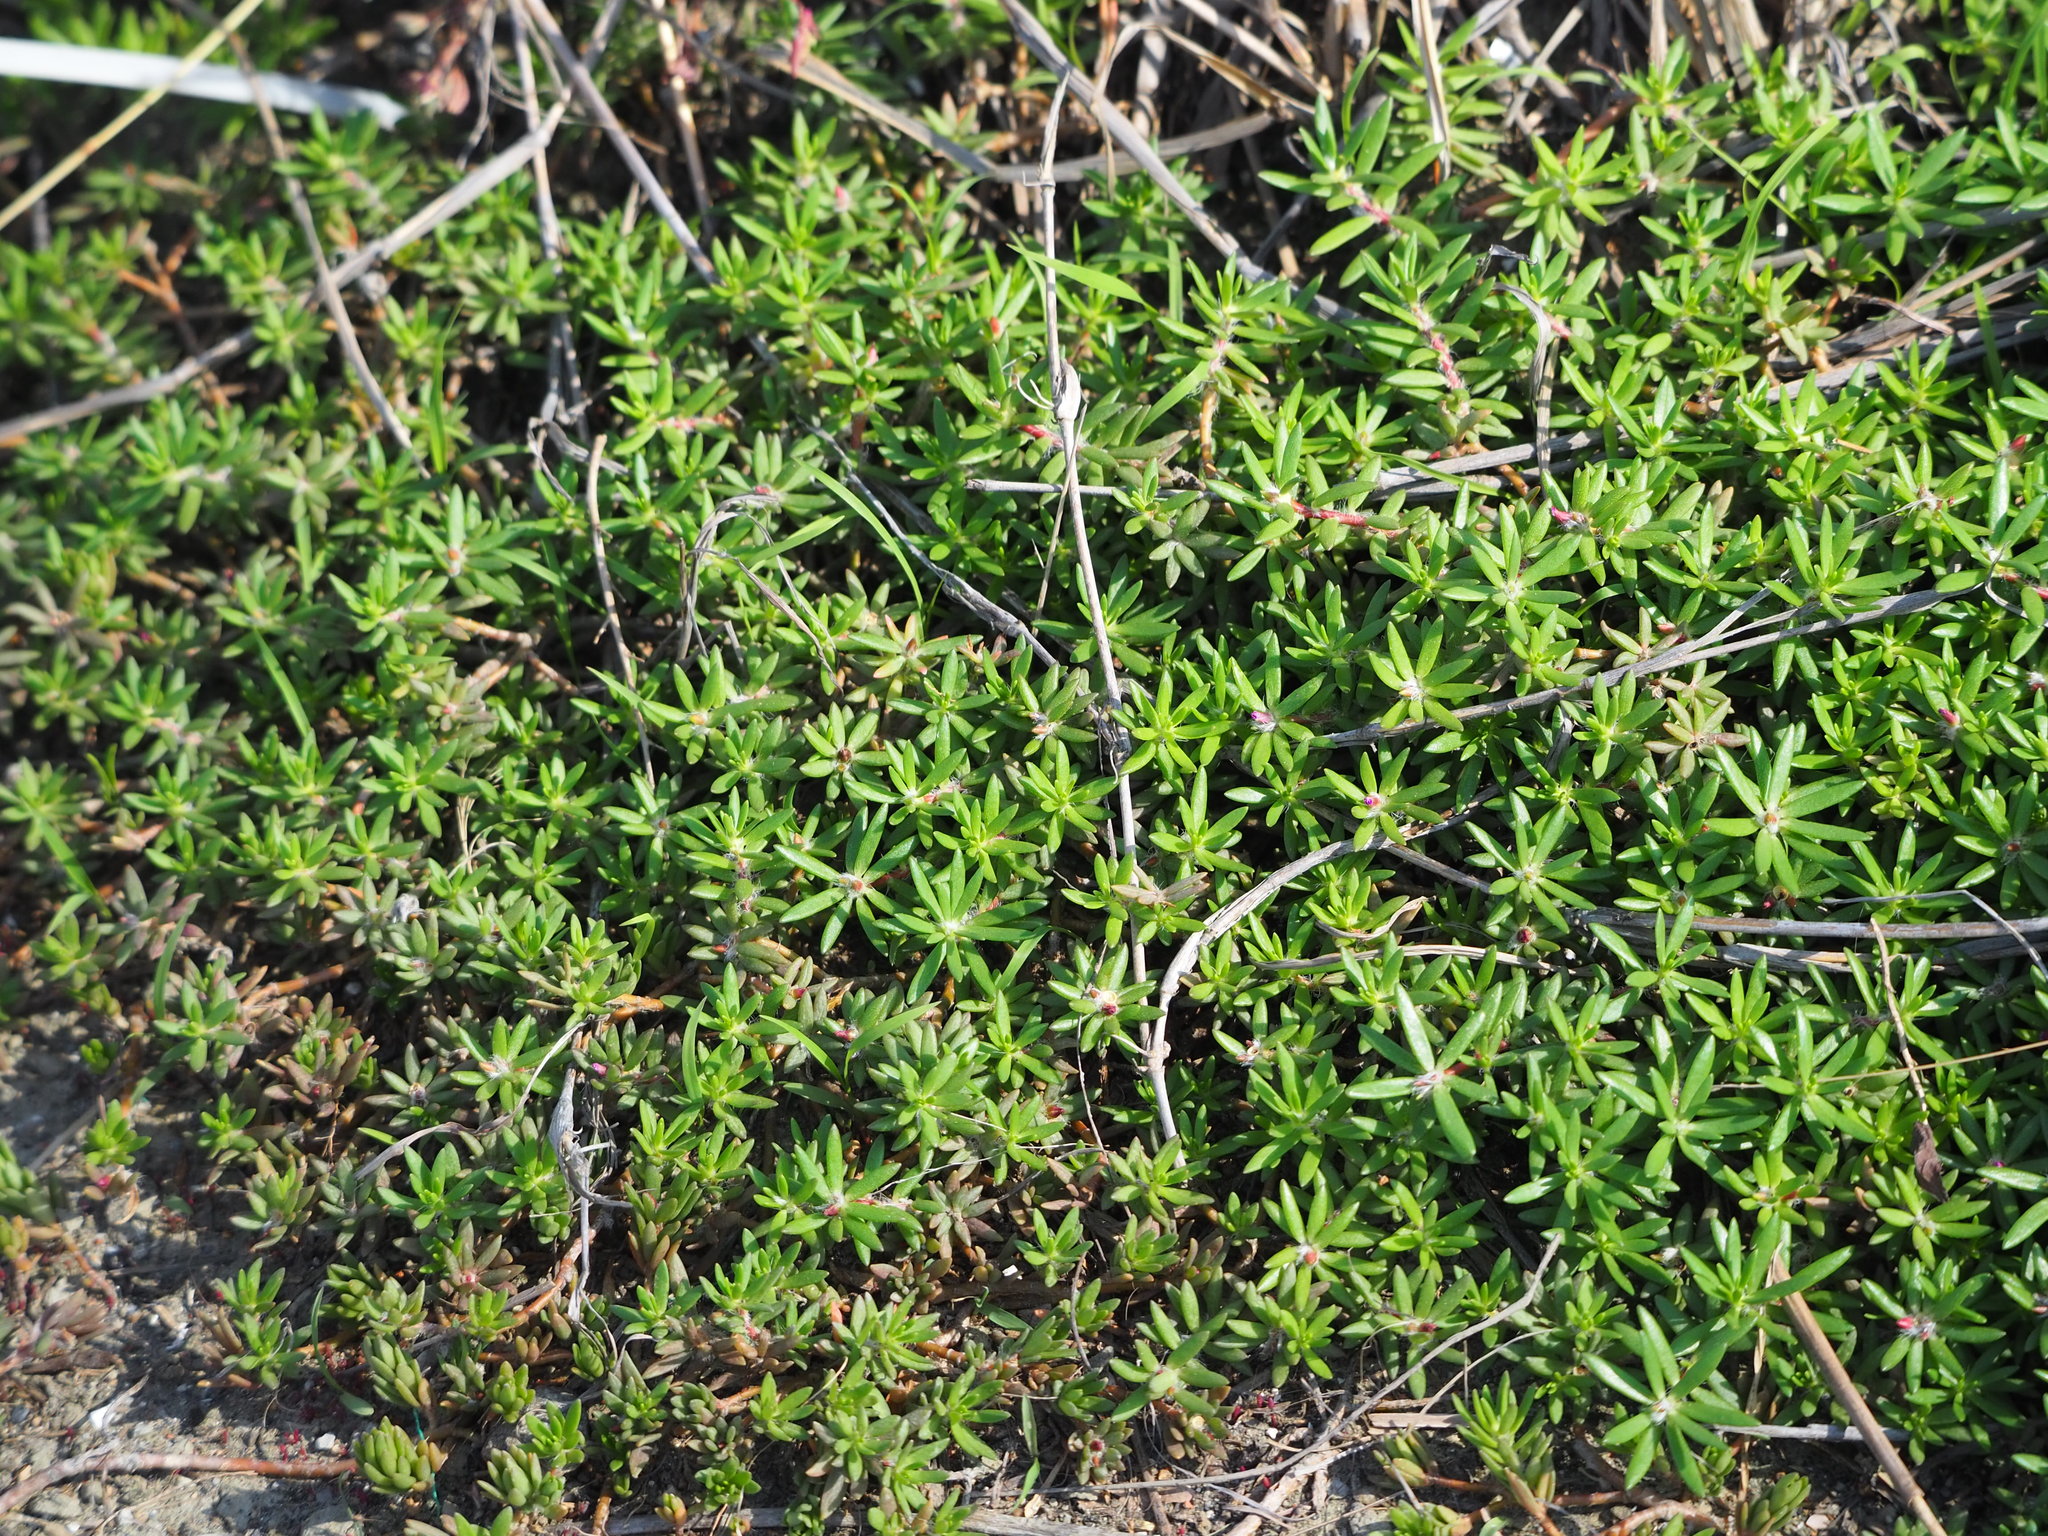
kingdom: Plantae
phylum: Tracheophyta
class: Magnoliopsida
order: Caryophyllales
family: Portulacaceae
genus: Portulaca
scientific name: Portulaca pilosa
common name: Kiss me quick
